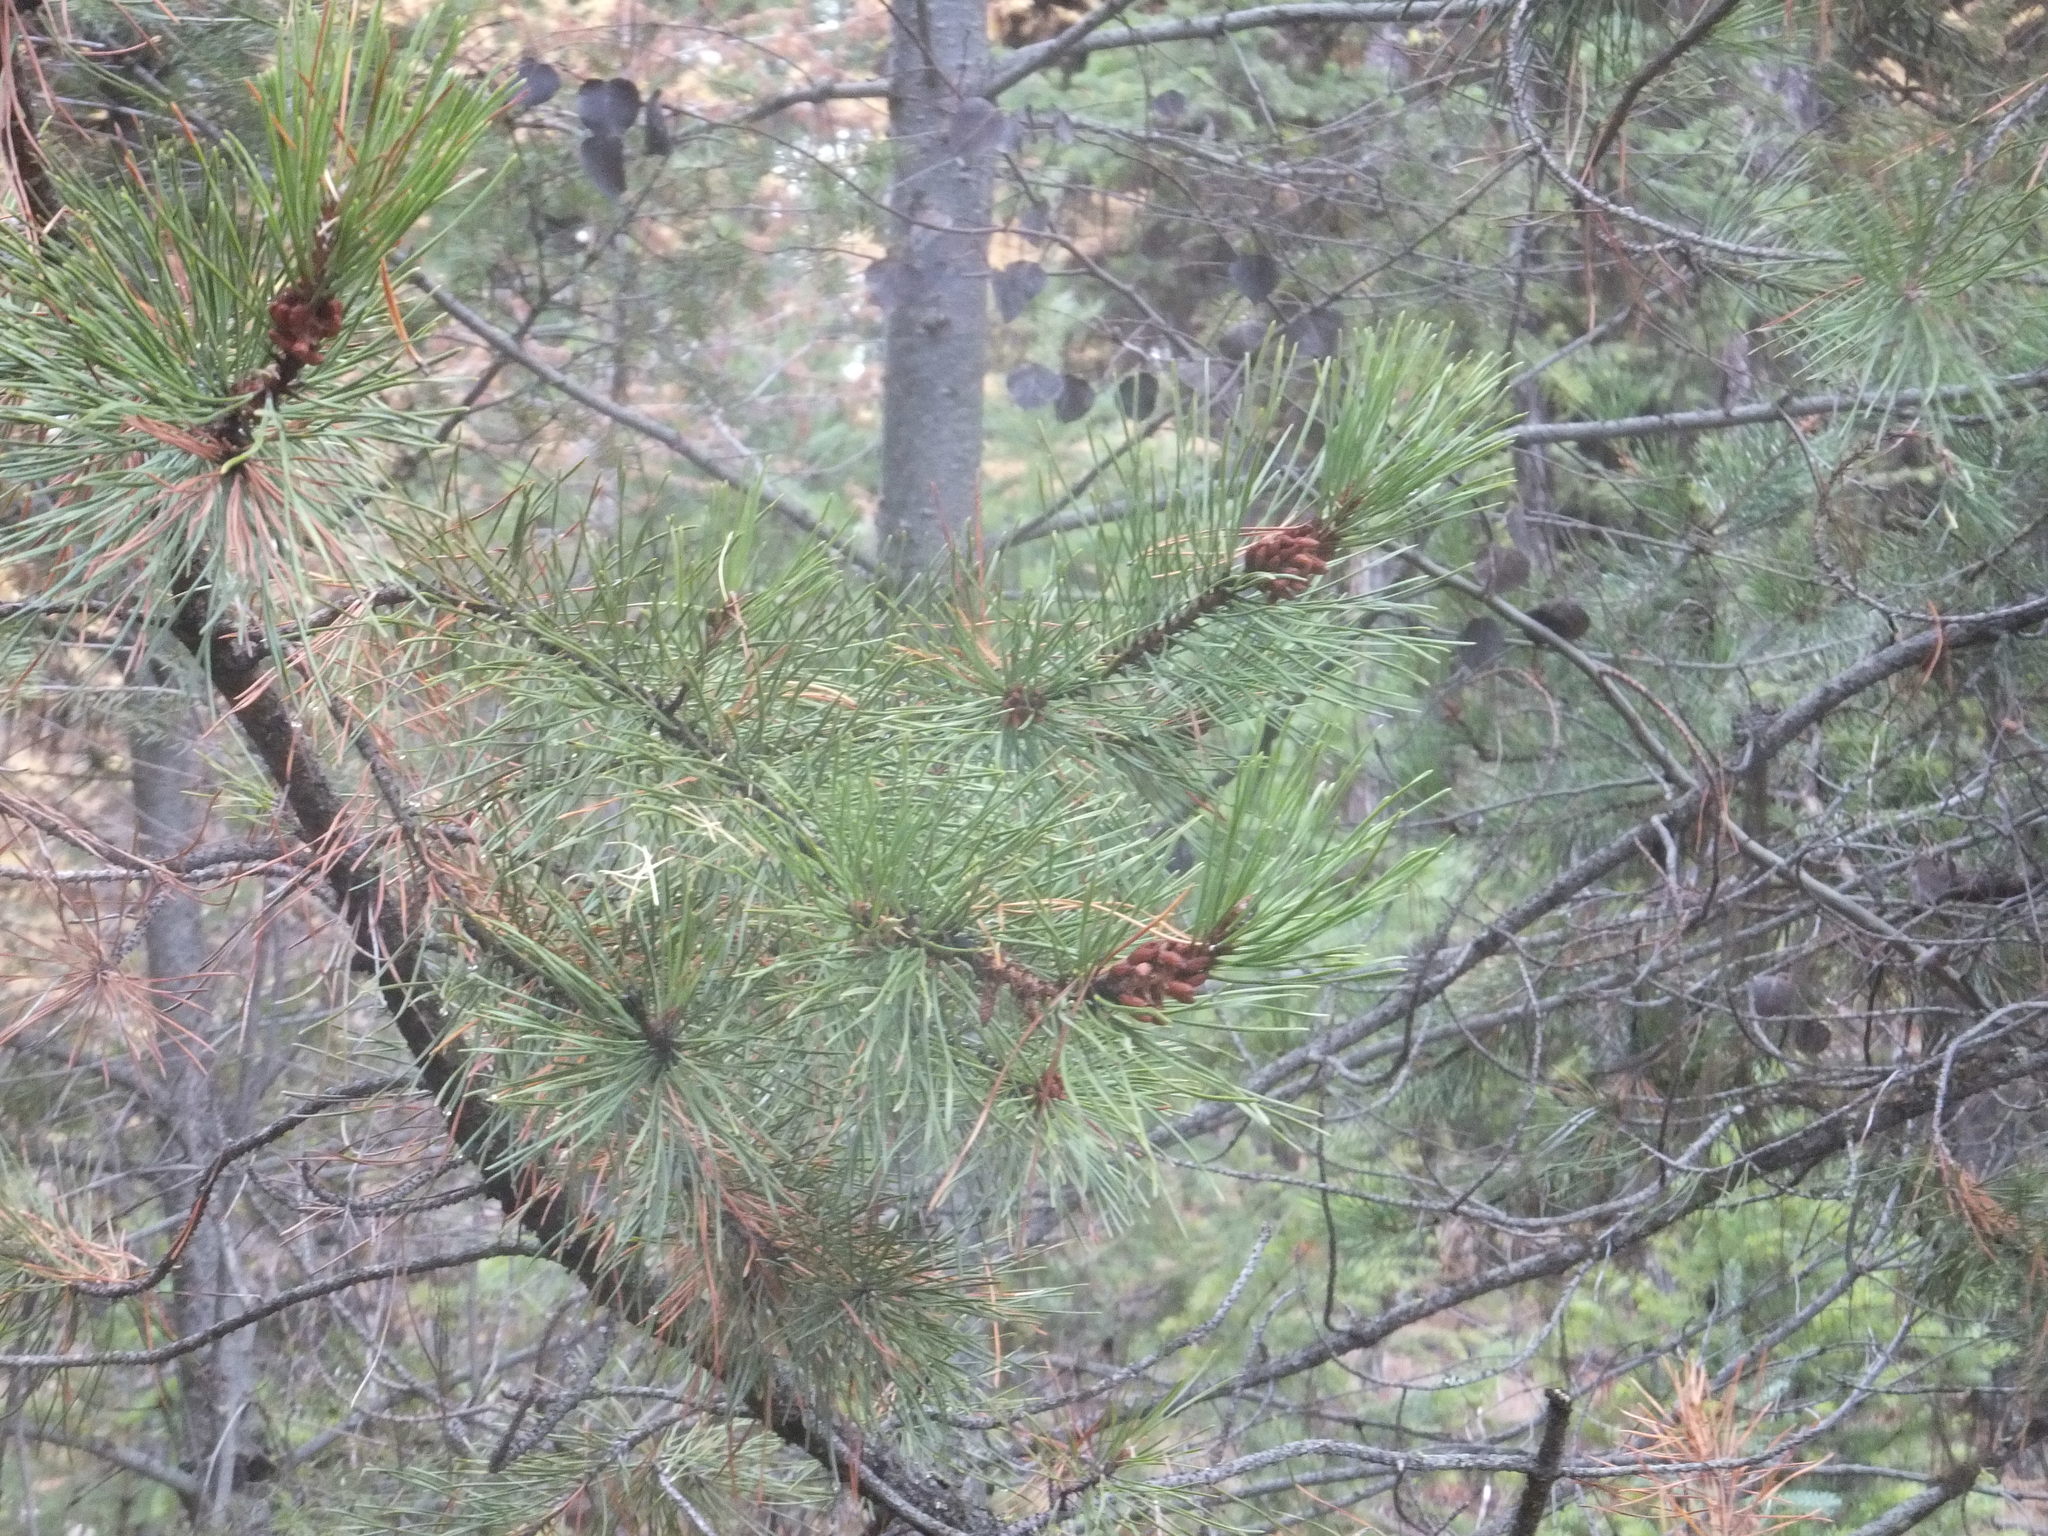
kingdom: Plantae
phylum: Tracheophyta
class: Pinopsida
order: Pinales
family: Pinaceae
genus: Pinus
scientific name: Pinus contorta
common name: Lodgepole pine
